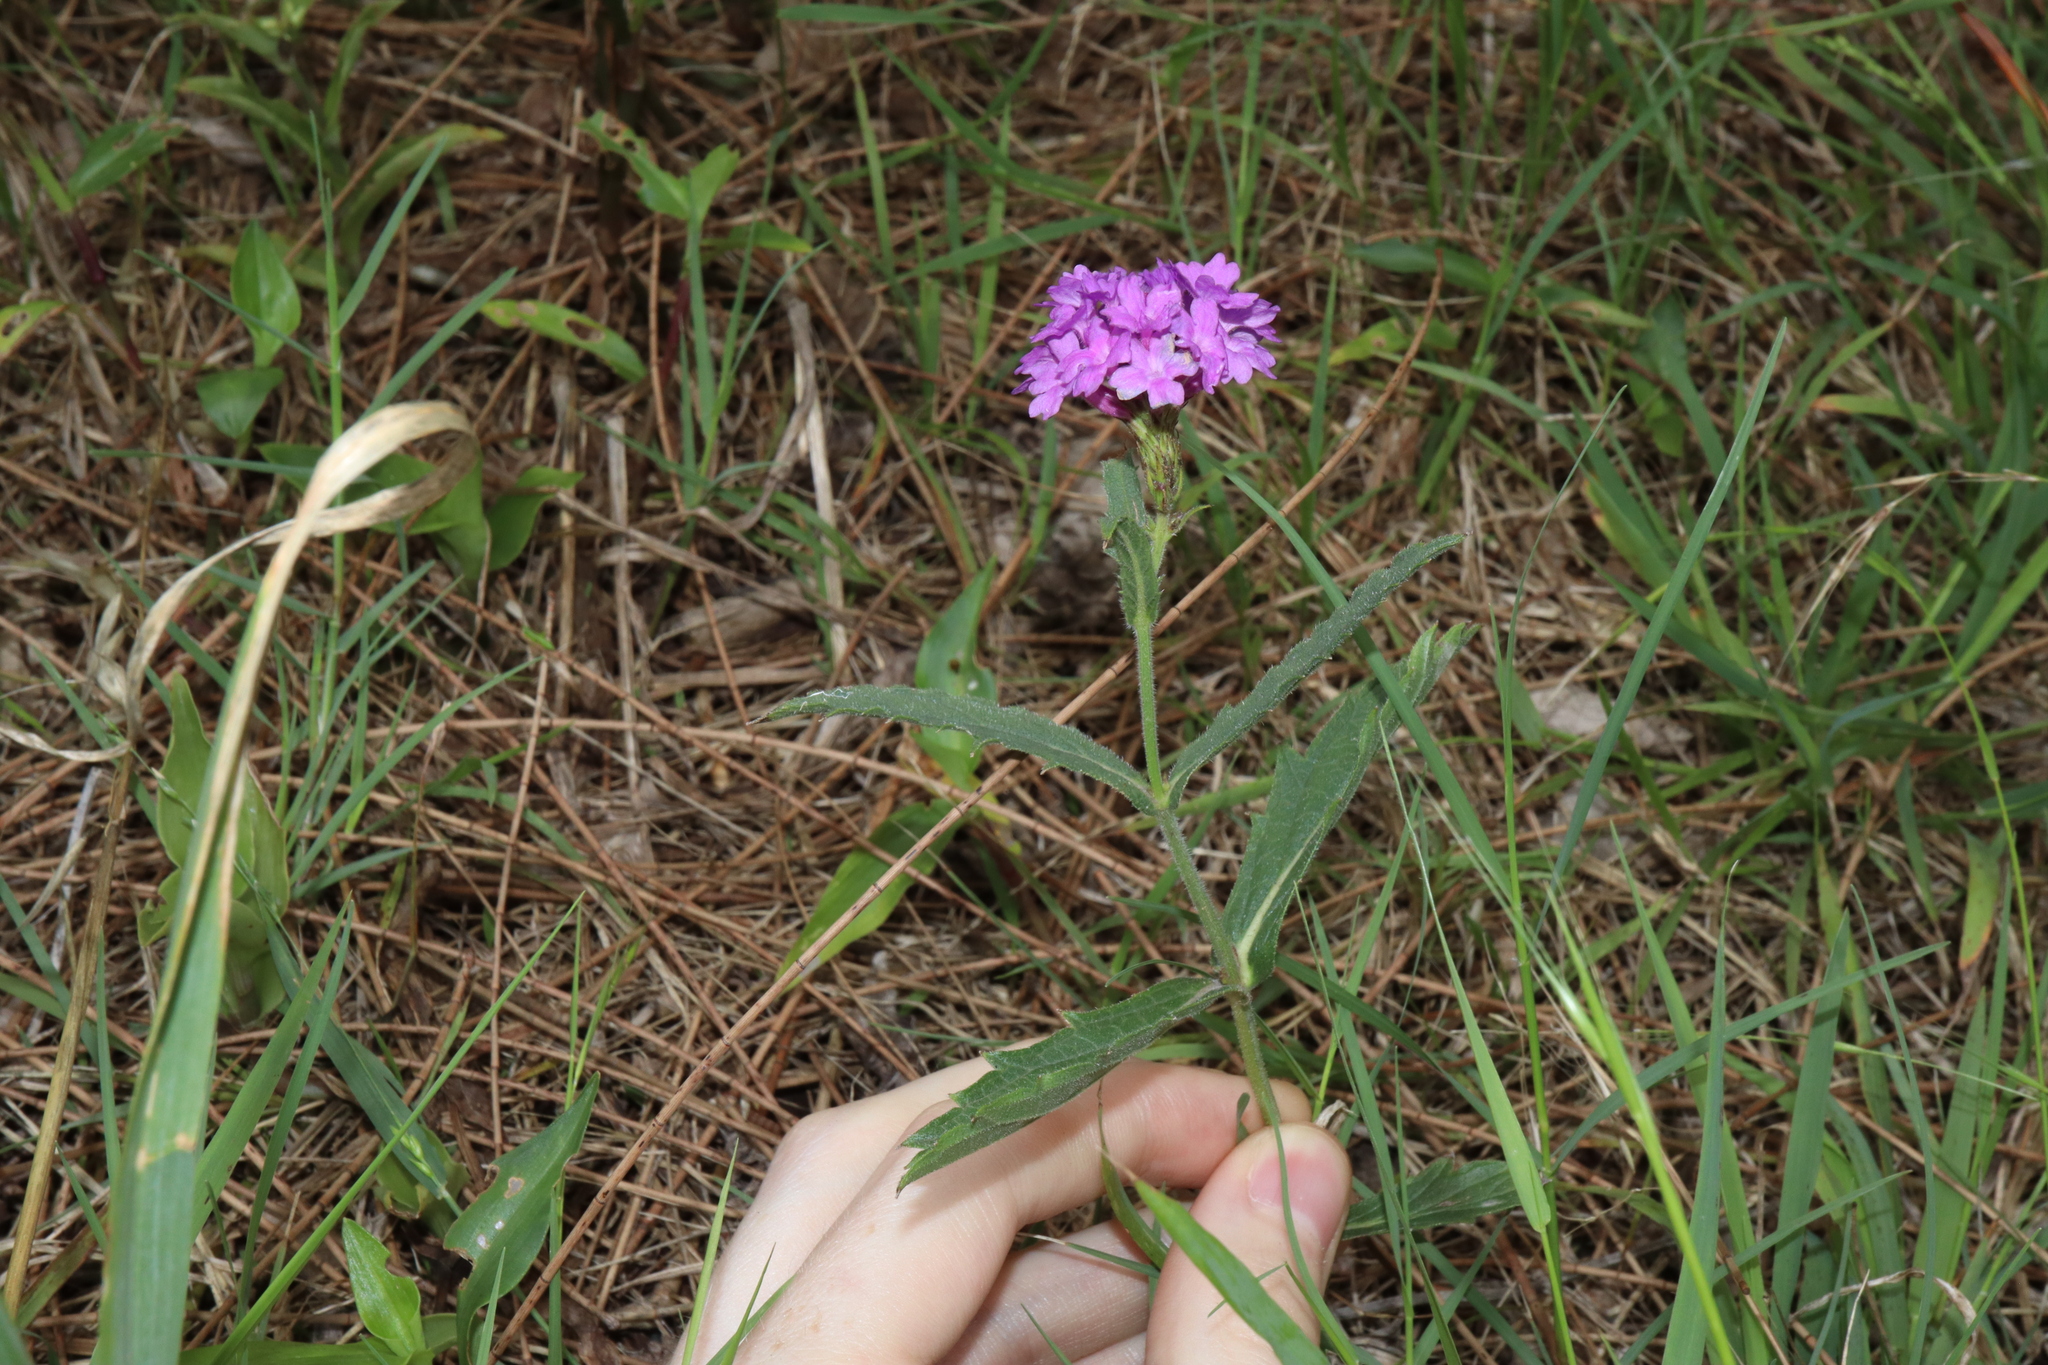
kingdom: Plantae
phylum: Tracheophyta
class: Magnoliopsida
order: Lamiales
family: Verbenaceae
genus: Verbena
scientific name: Verbena rigida
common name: Slender vervain
